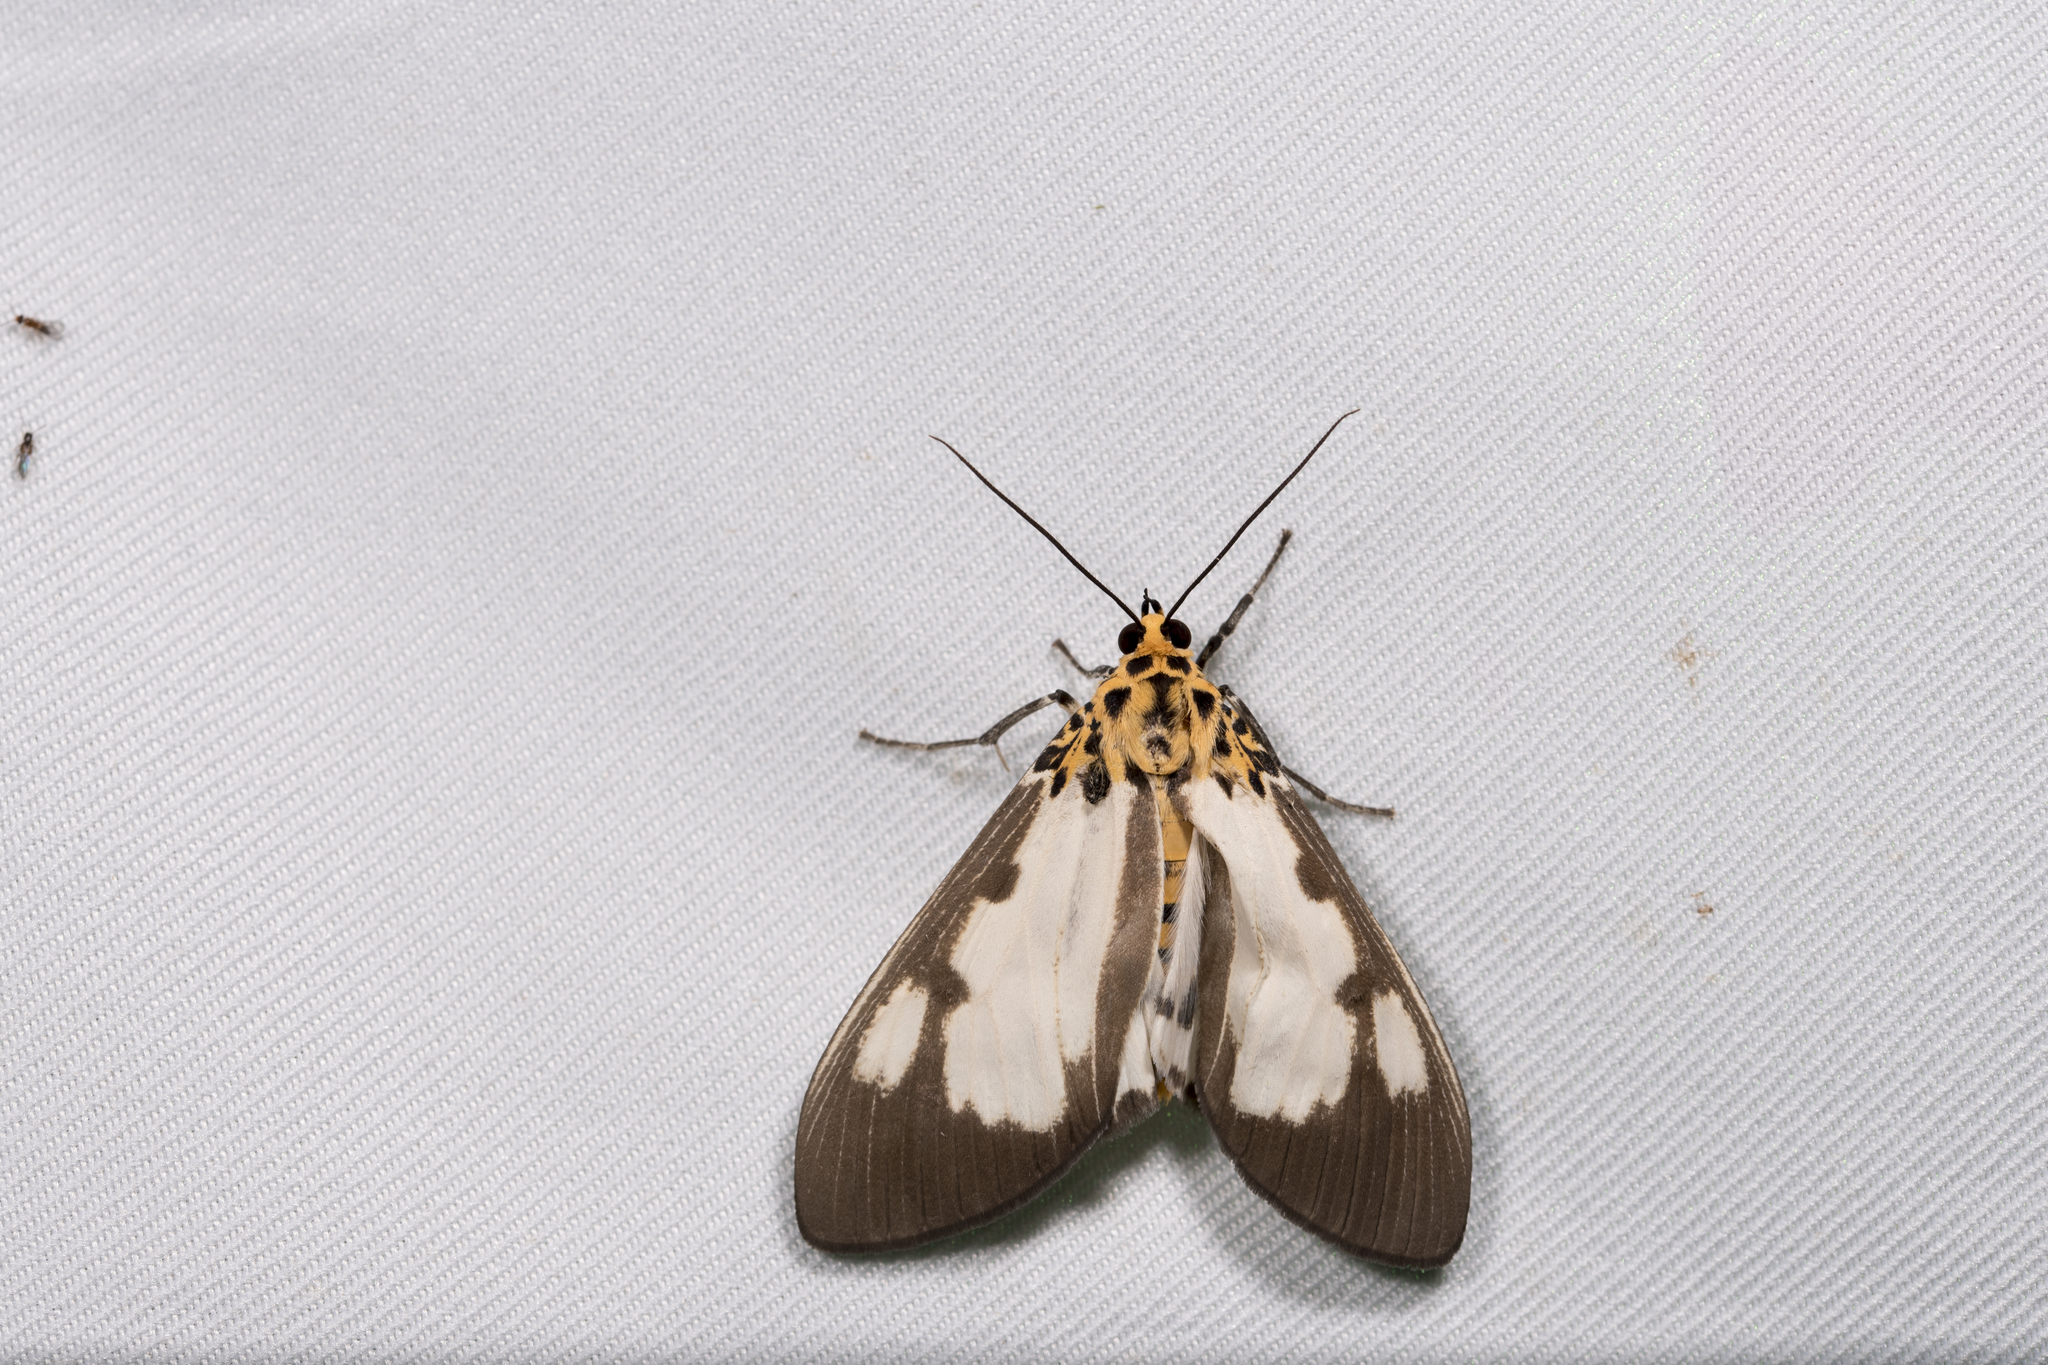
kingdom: Animalia
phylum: Arthropoda
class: Insecta
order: Lepidoptera
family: Erebidae
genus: Asota
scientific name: Asota plana
